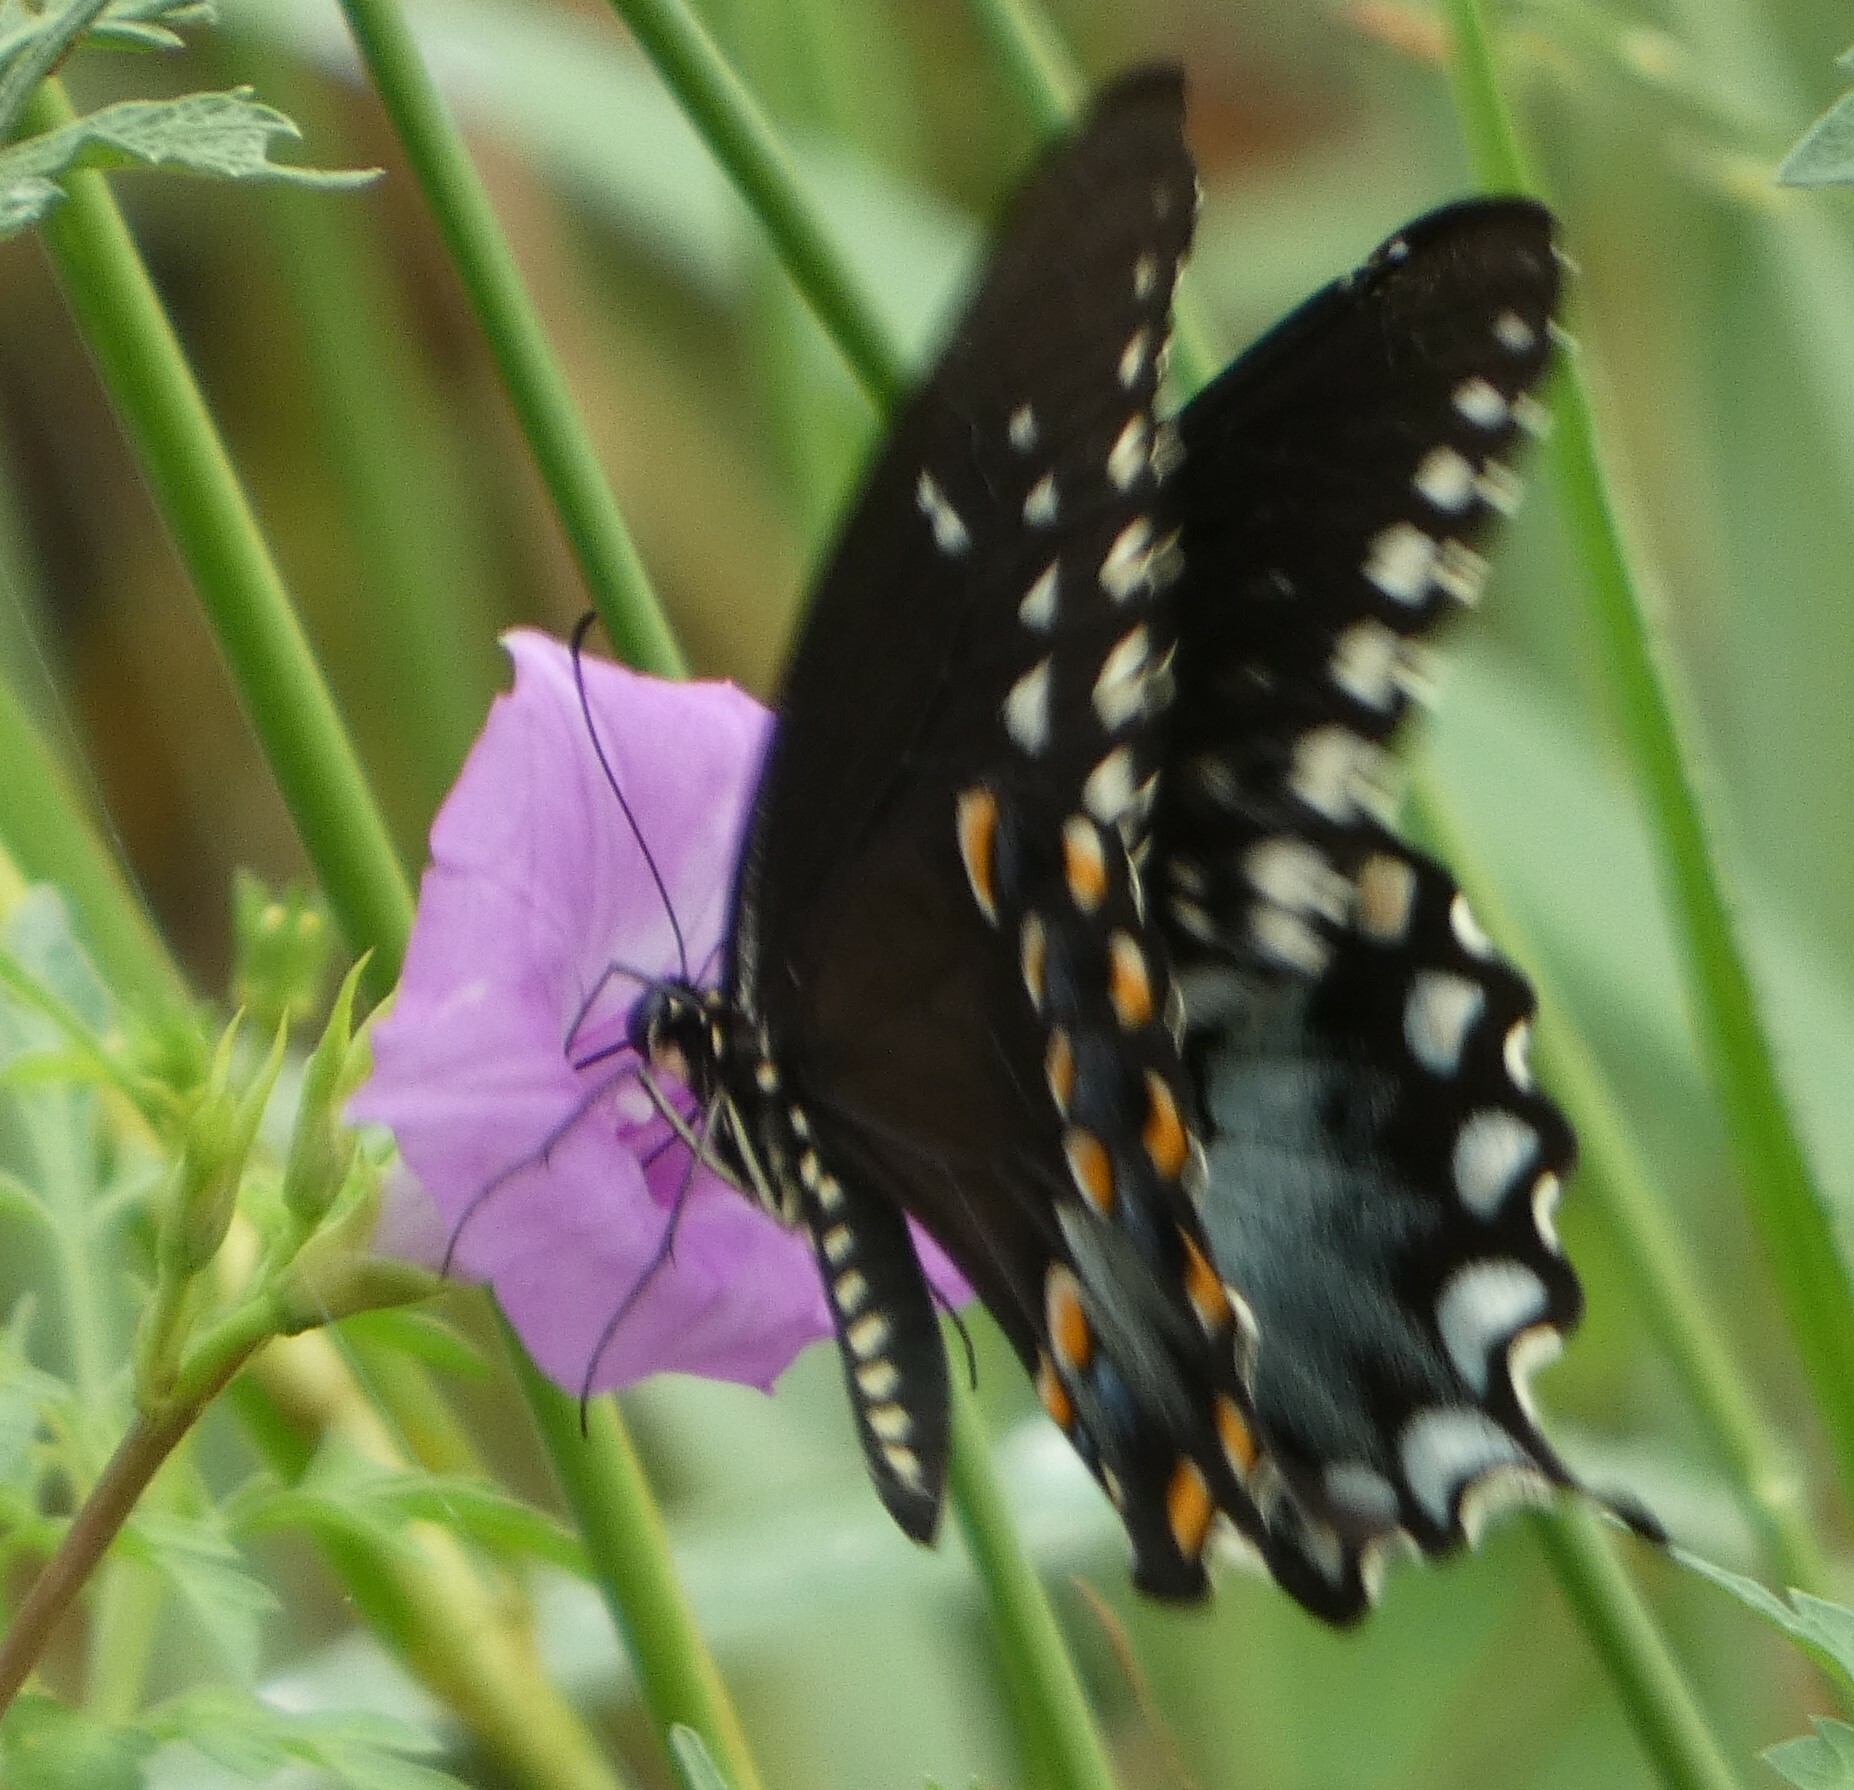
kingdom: Animalia
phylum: Arthropoda
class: Insecta
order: Lepidoptera
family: Papilionidae
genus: Papilio
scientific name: Papilio troilus
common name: Spicebush swallowtail
